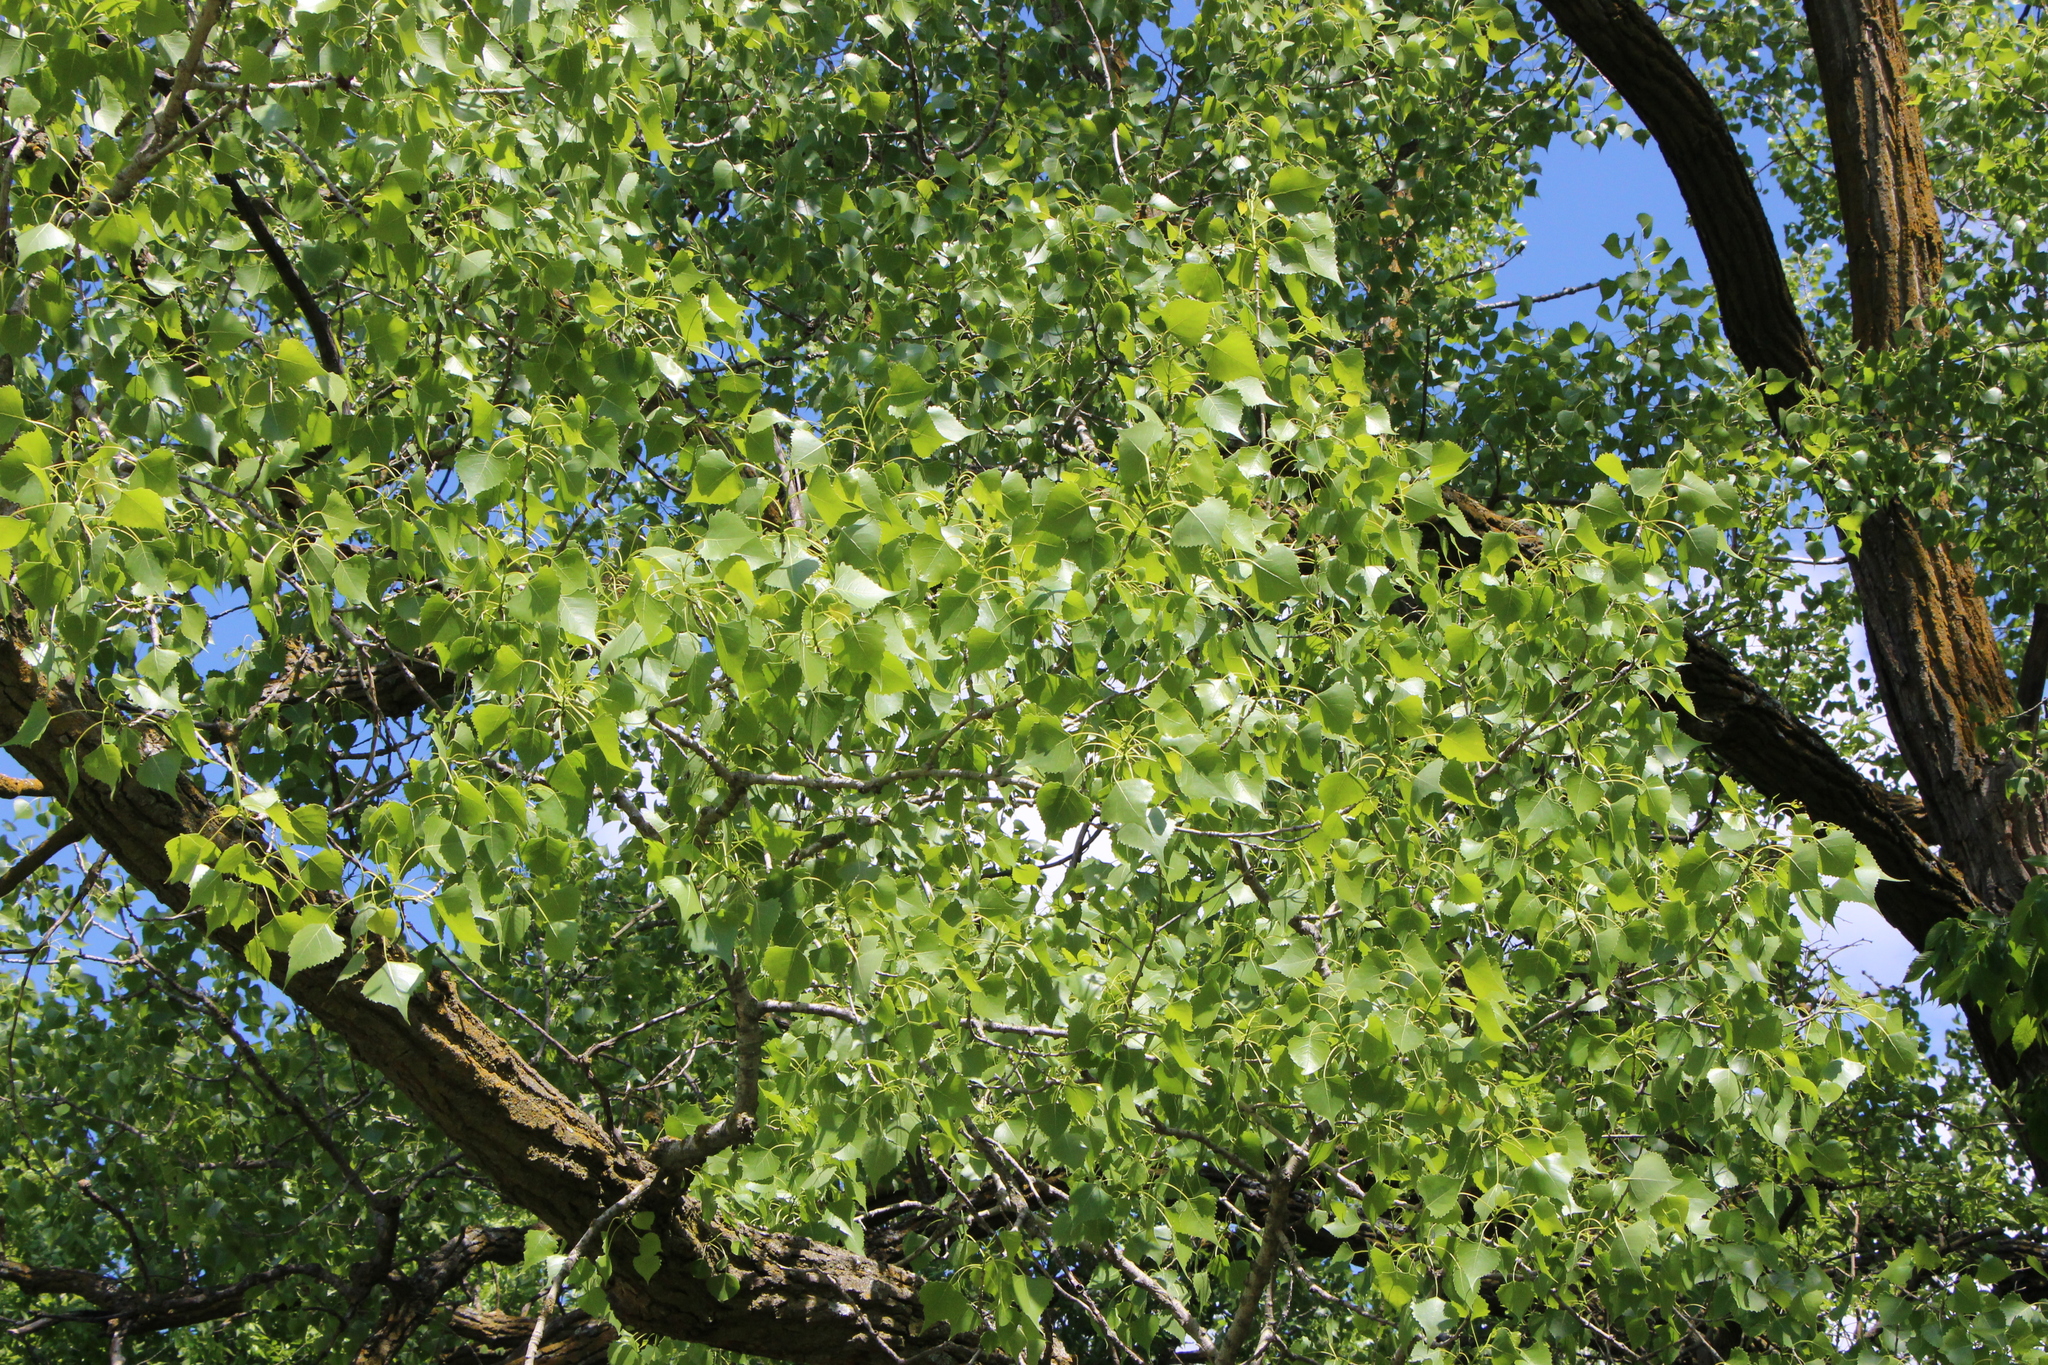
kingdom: Plantae
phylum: Tracheophyta
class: Magnoliopsida
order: Malpighiales
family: Salicaceae
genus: Populus
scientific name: Populus deltoides
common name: Eastern cottonwood
